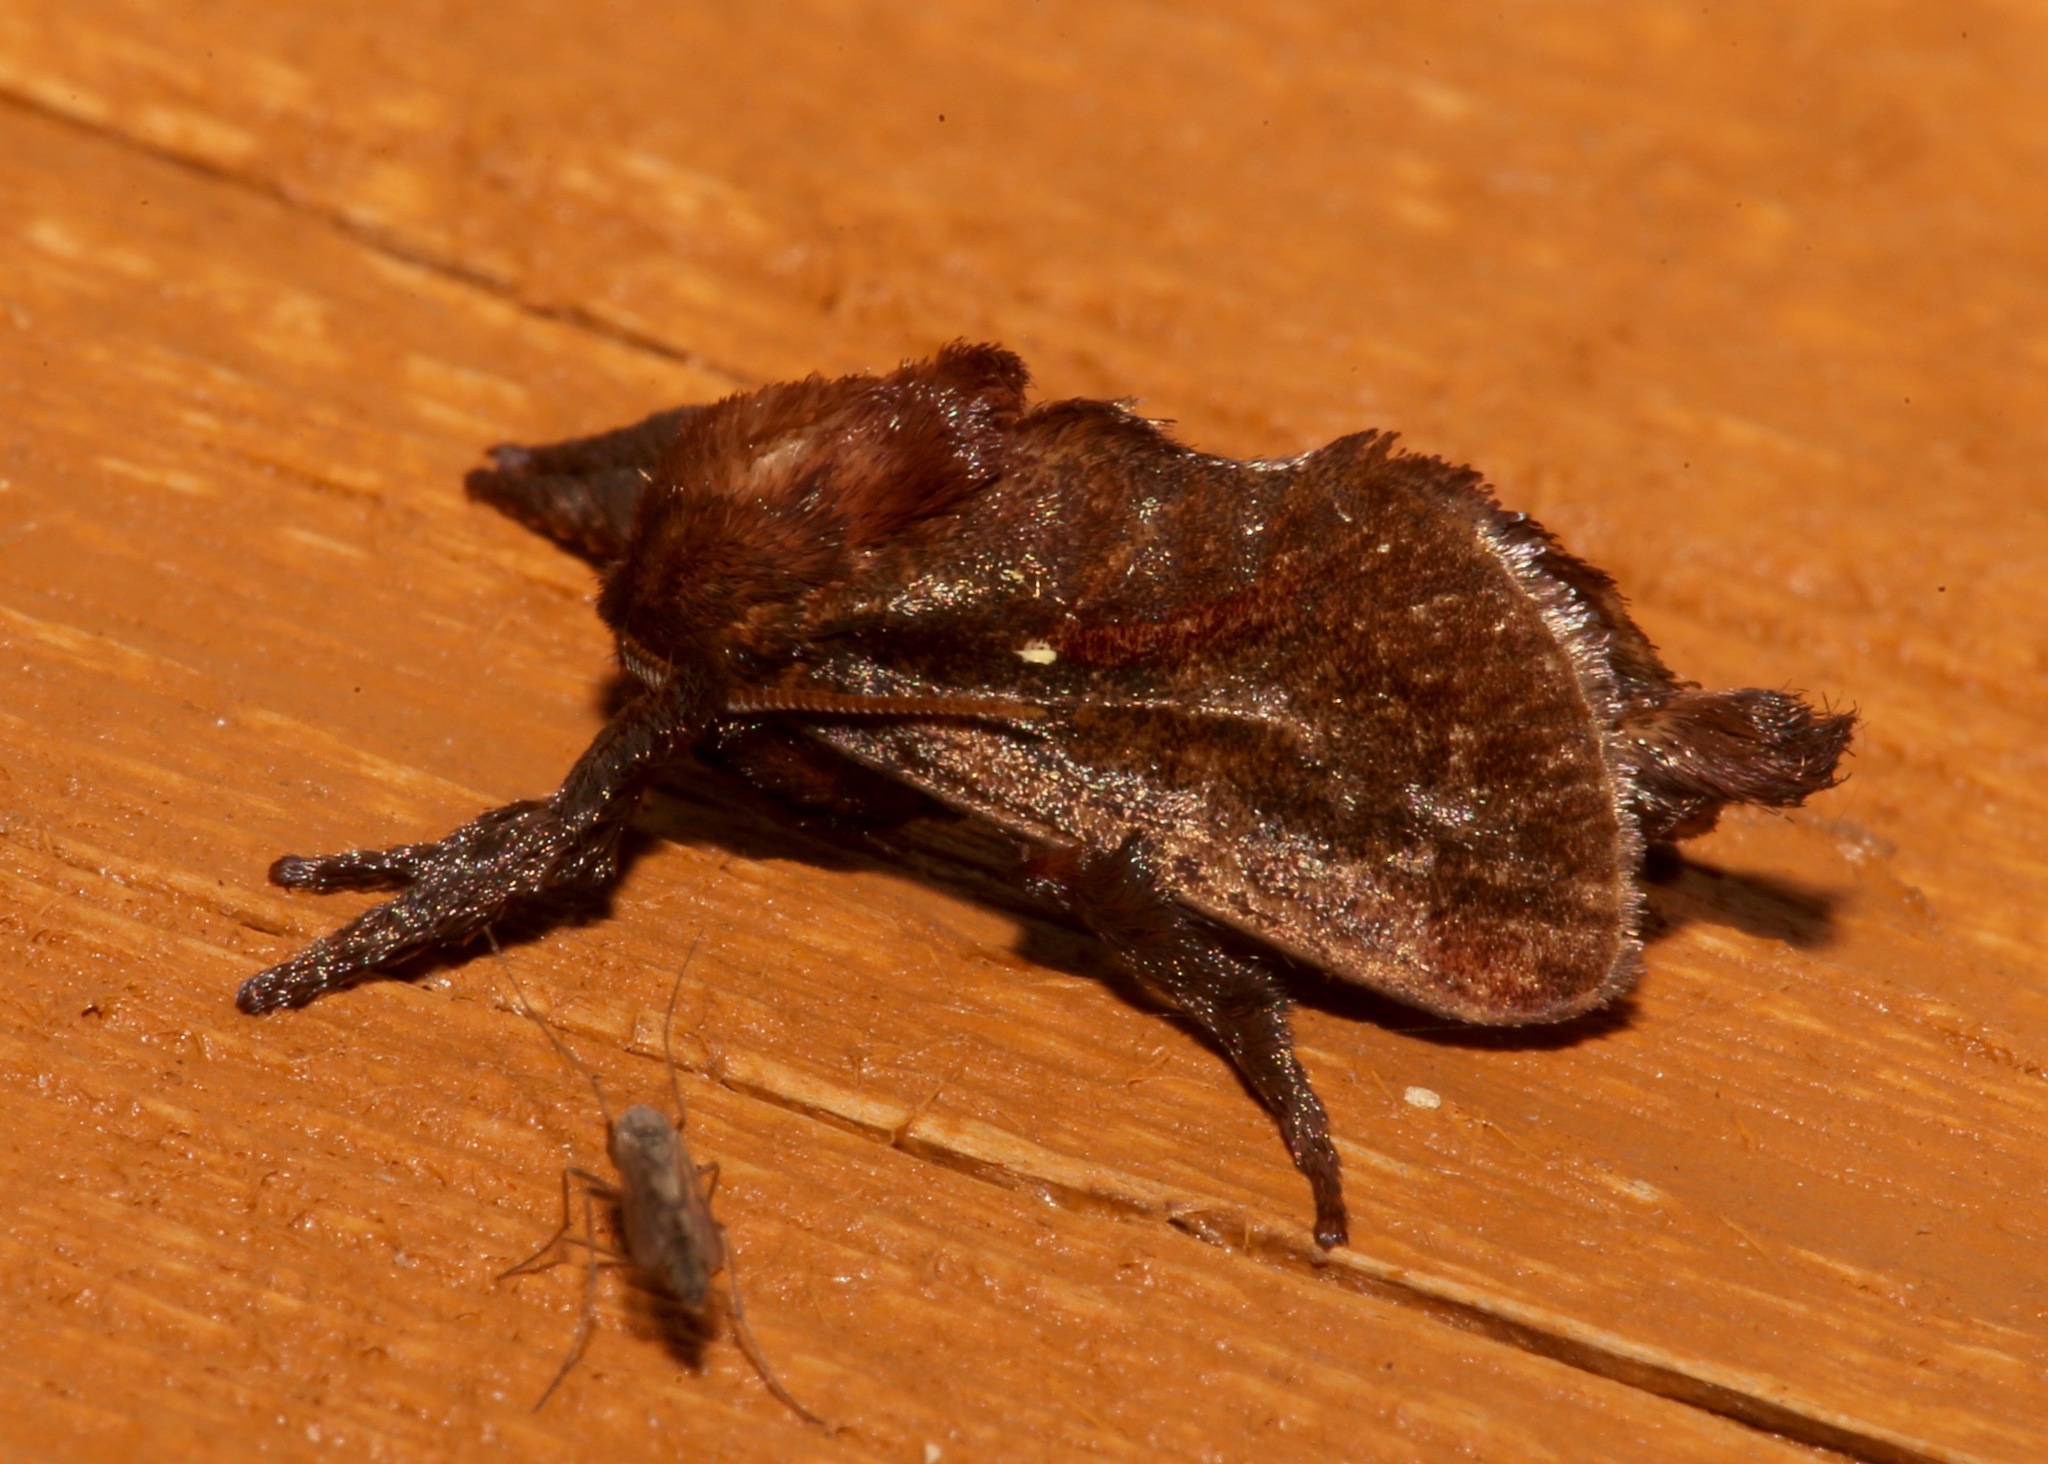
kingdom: Animalia
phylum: Arthropoda
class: Insecta
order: Lepidoptera
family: Limacodidae
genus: Acharia
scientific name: Acharia stimulea
